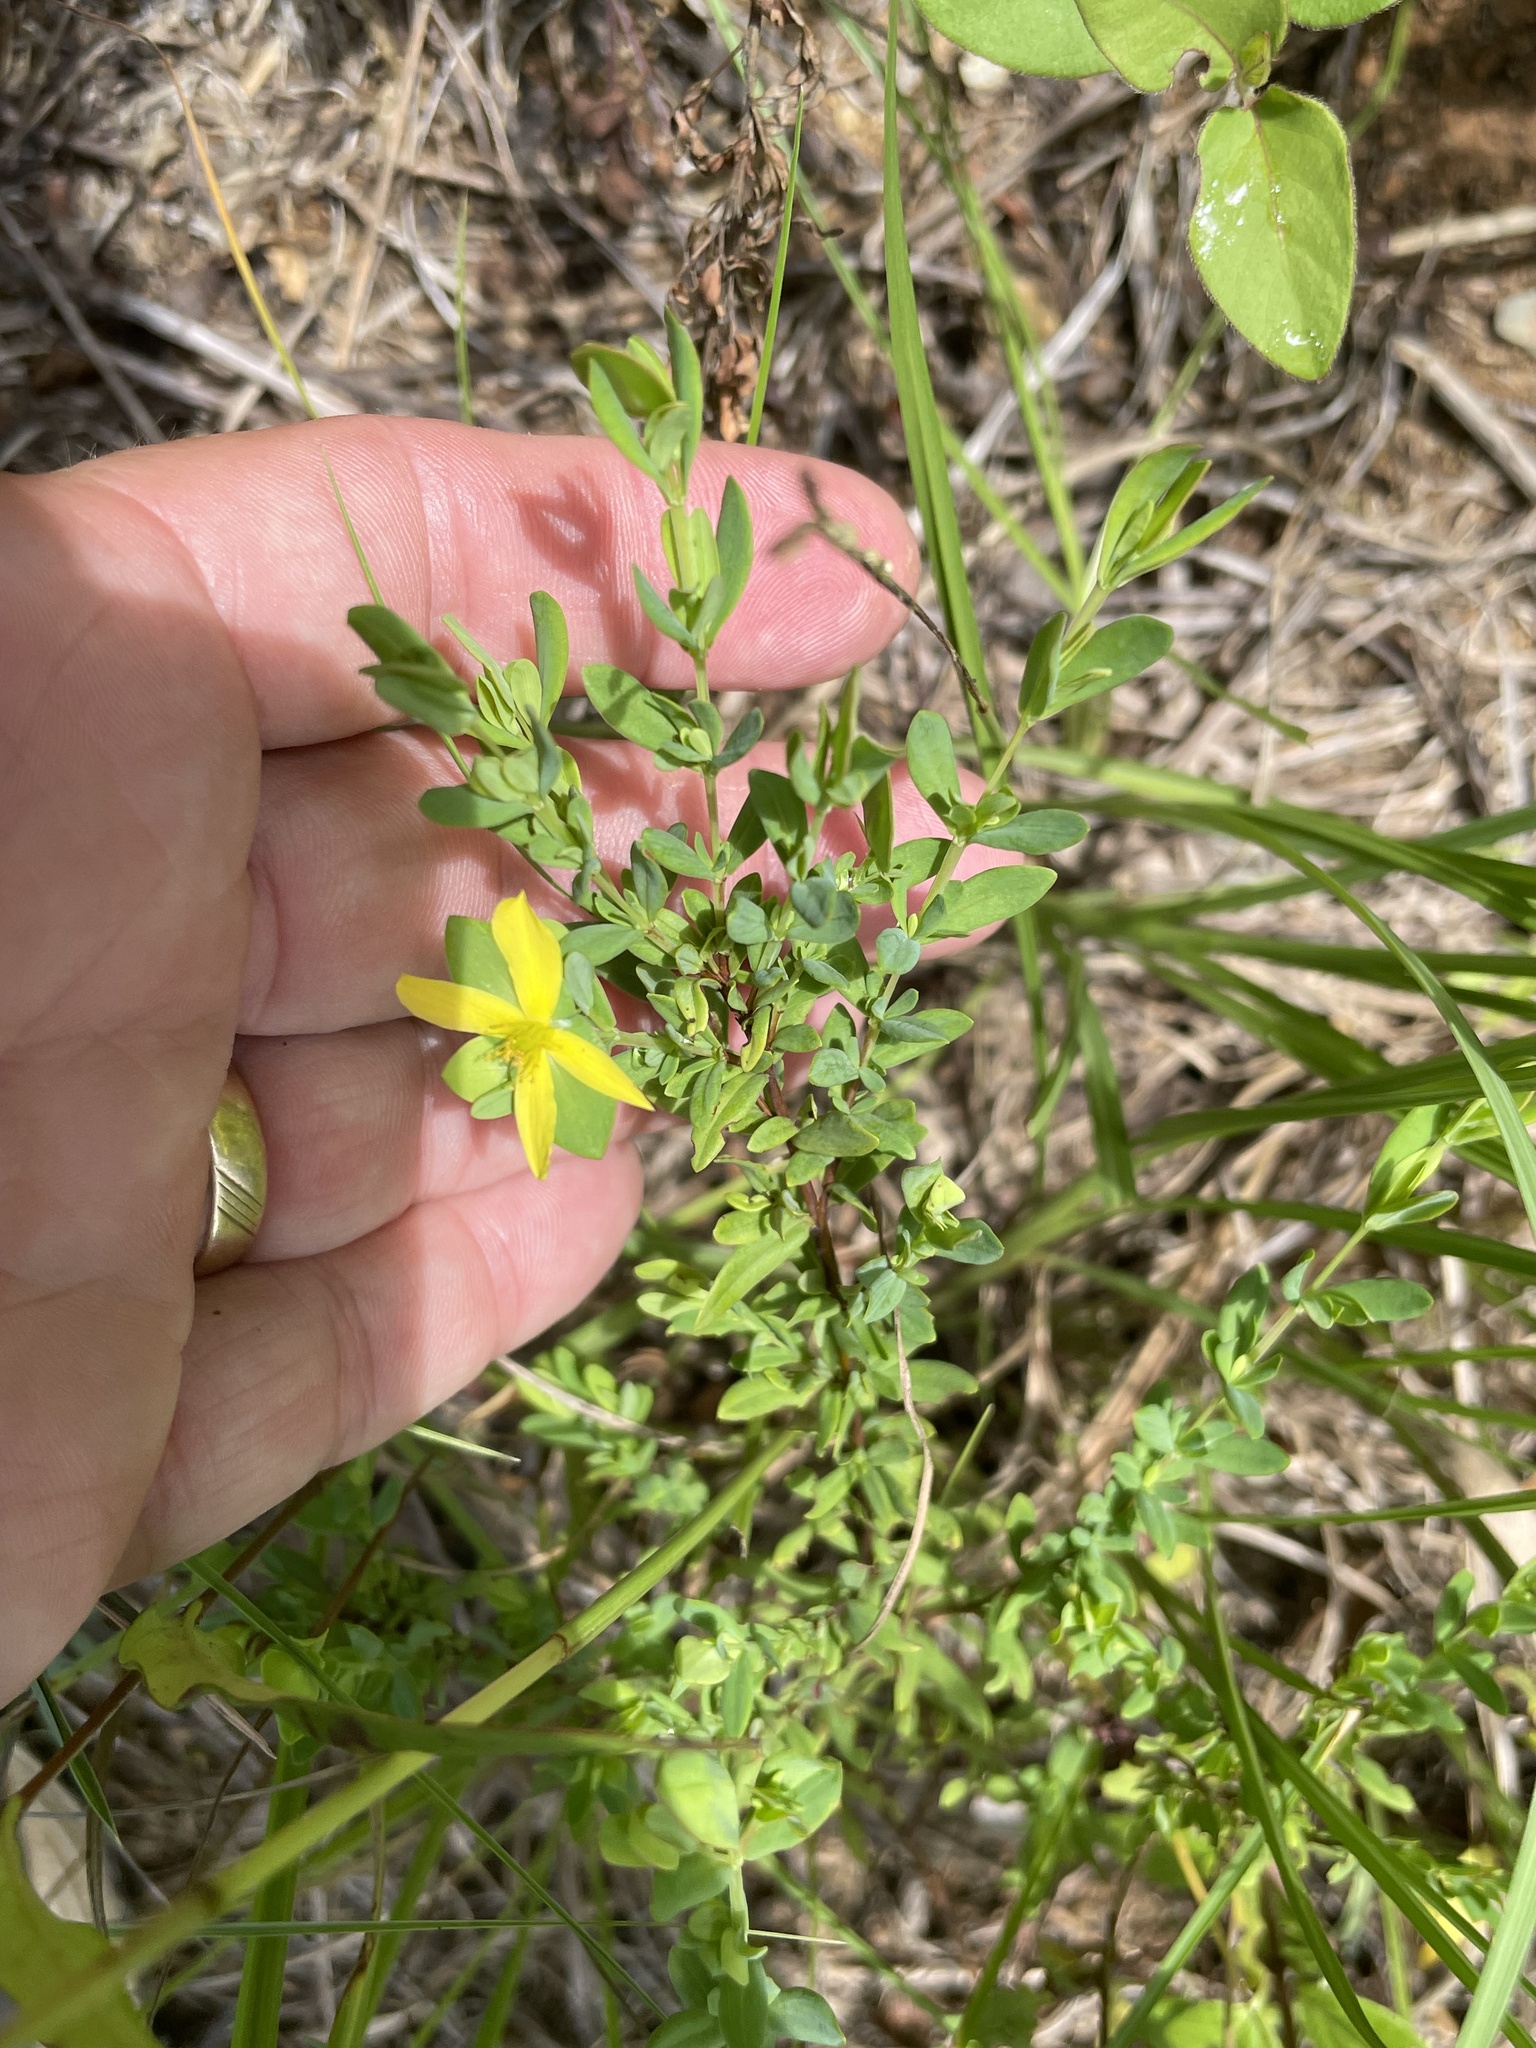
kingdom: Plantae
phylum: Tracheophyta
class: Magnoliopsida
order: Malpighiales
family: Hypericaceae
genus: Hypericum
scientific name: Hypericum hypericoides
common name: St. andrew's cross
